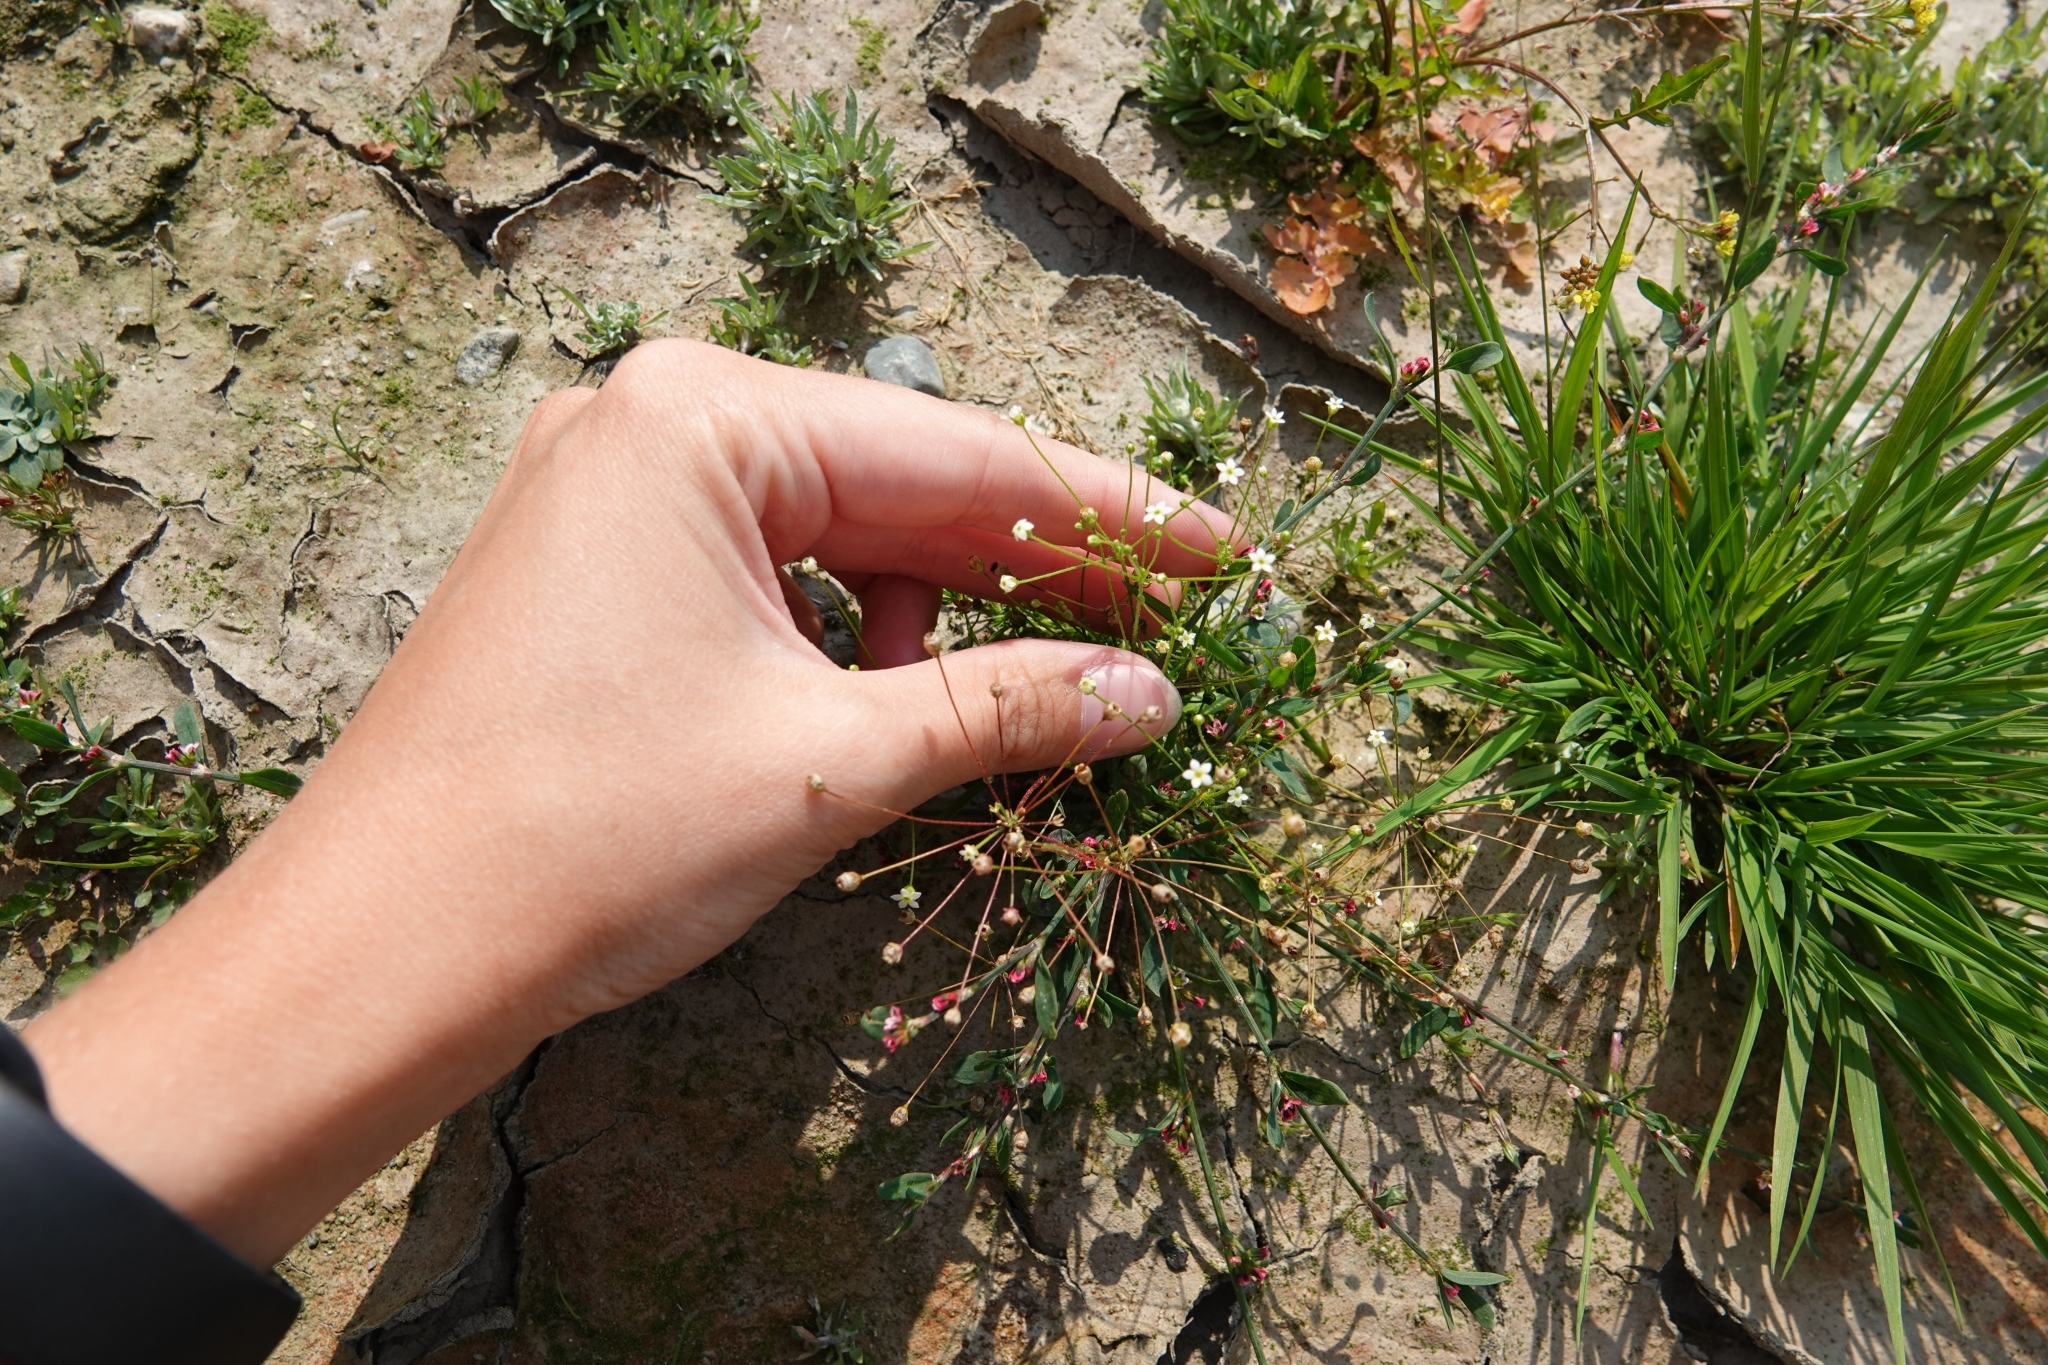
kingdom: Plantae
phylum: Tracheophyta
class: Magnoliopsida
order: Ericales
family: Primulaceae
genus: Androsace
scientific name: Androsace filiformis
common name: Filiform rock jasmine
